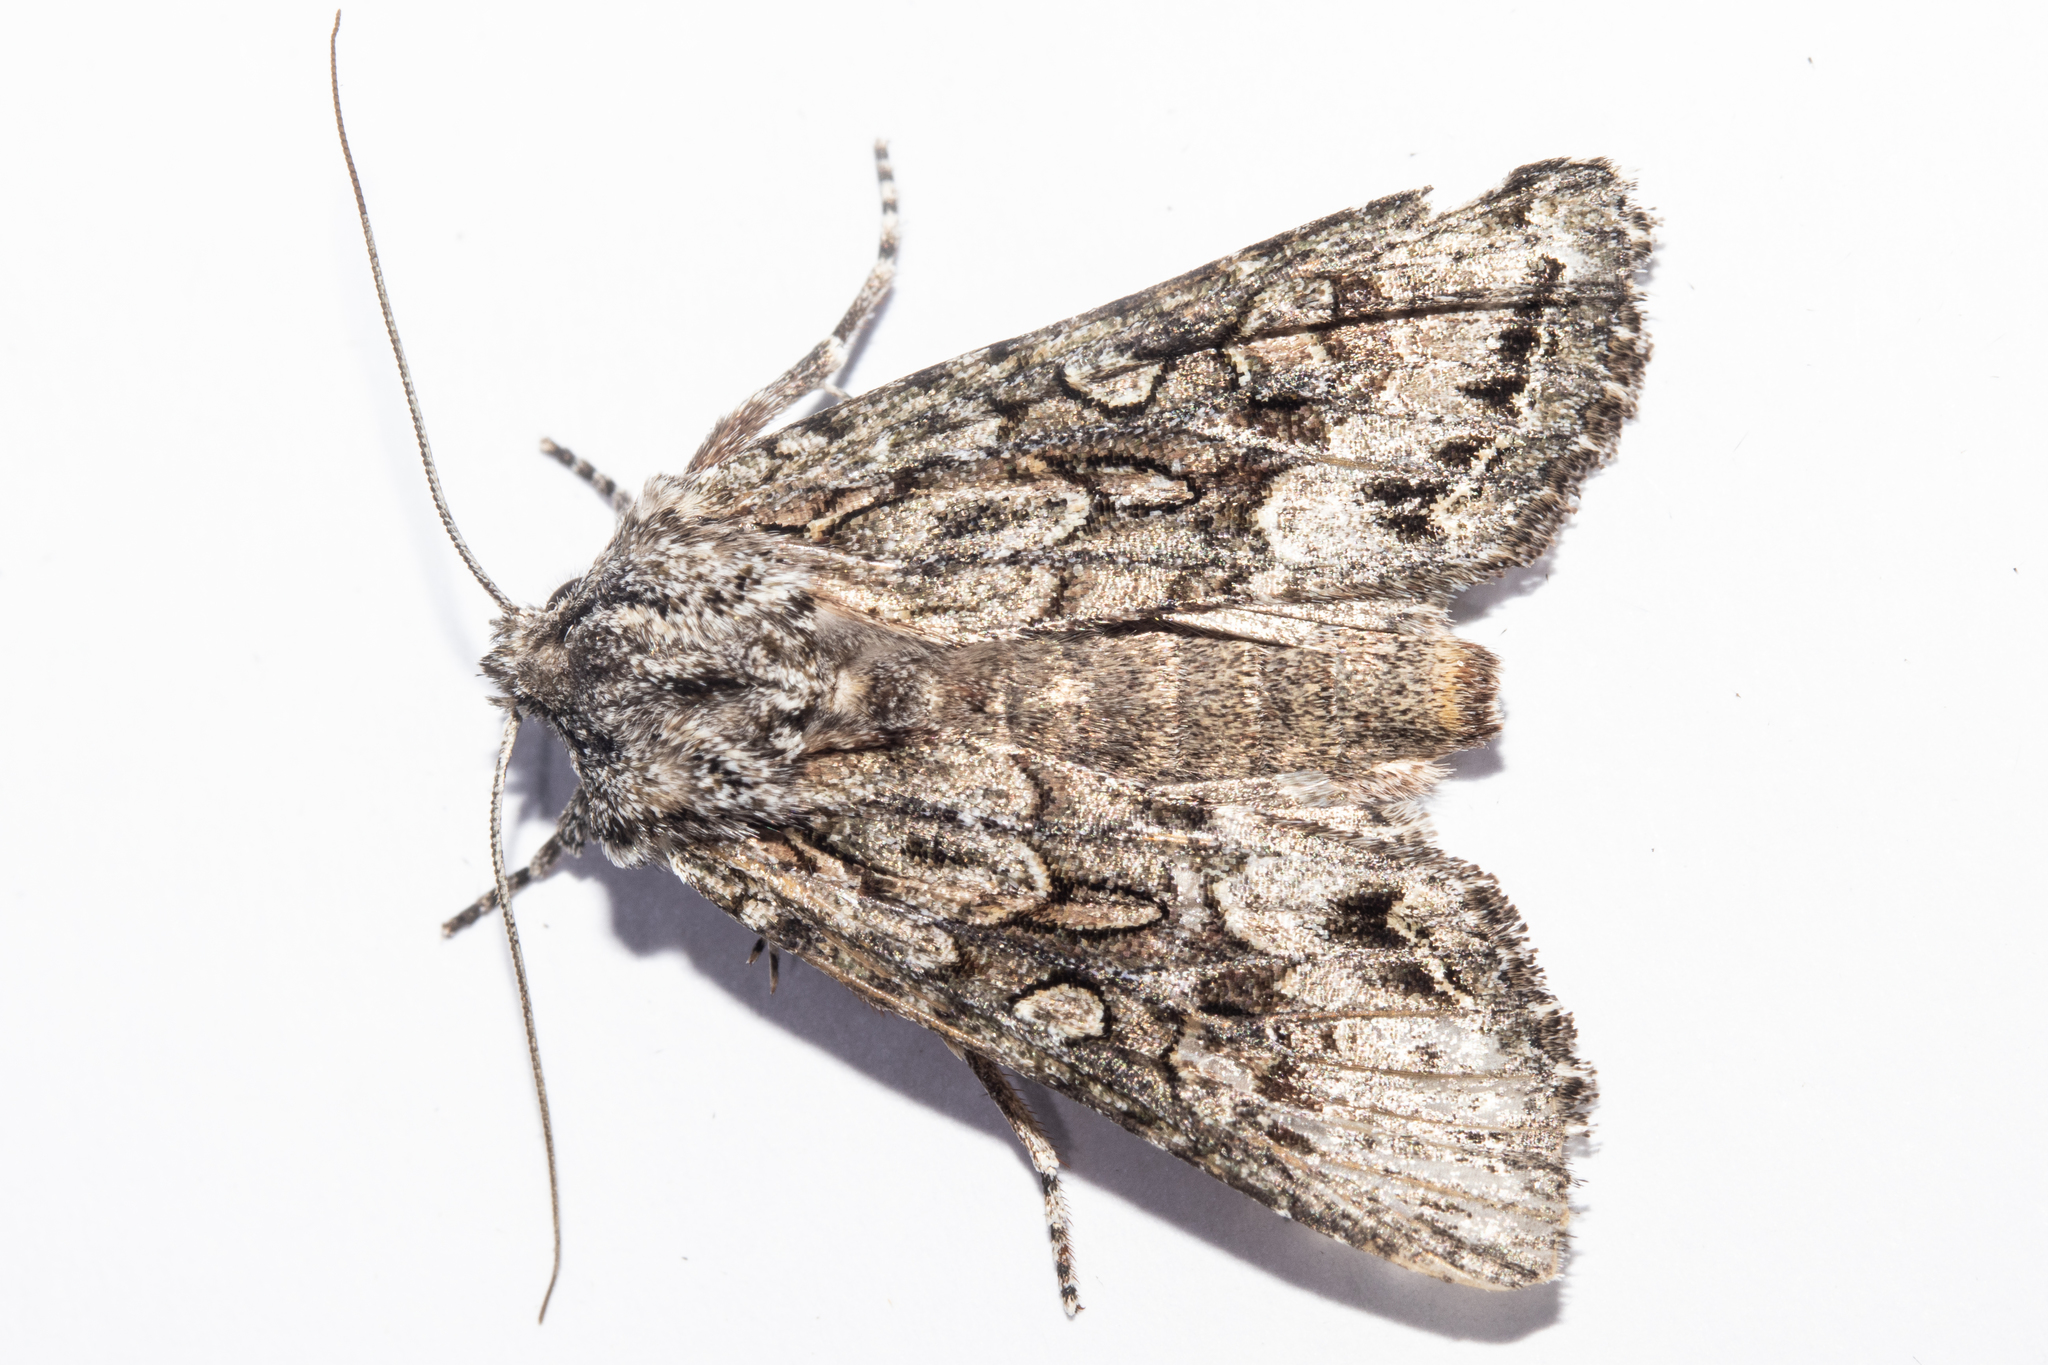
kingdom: Animalia
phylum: Arthropoda
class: Insecta
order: Lepidoptera
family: Noctuidae
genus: Ichneutica
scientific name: Ichneutica mutans
